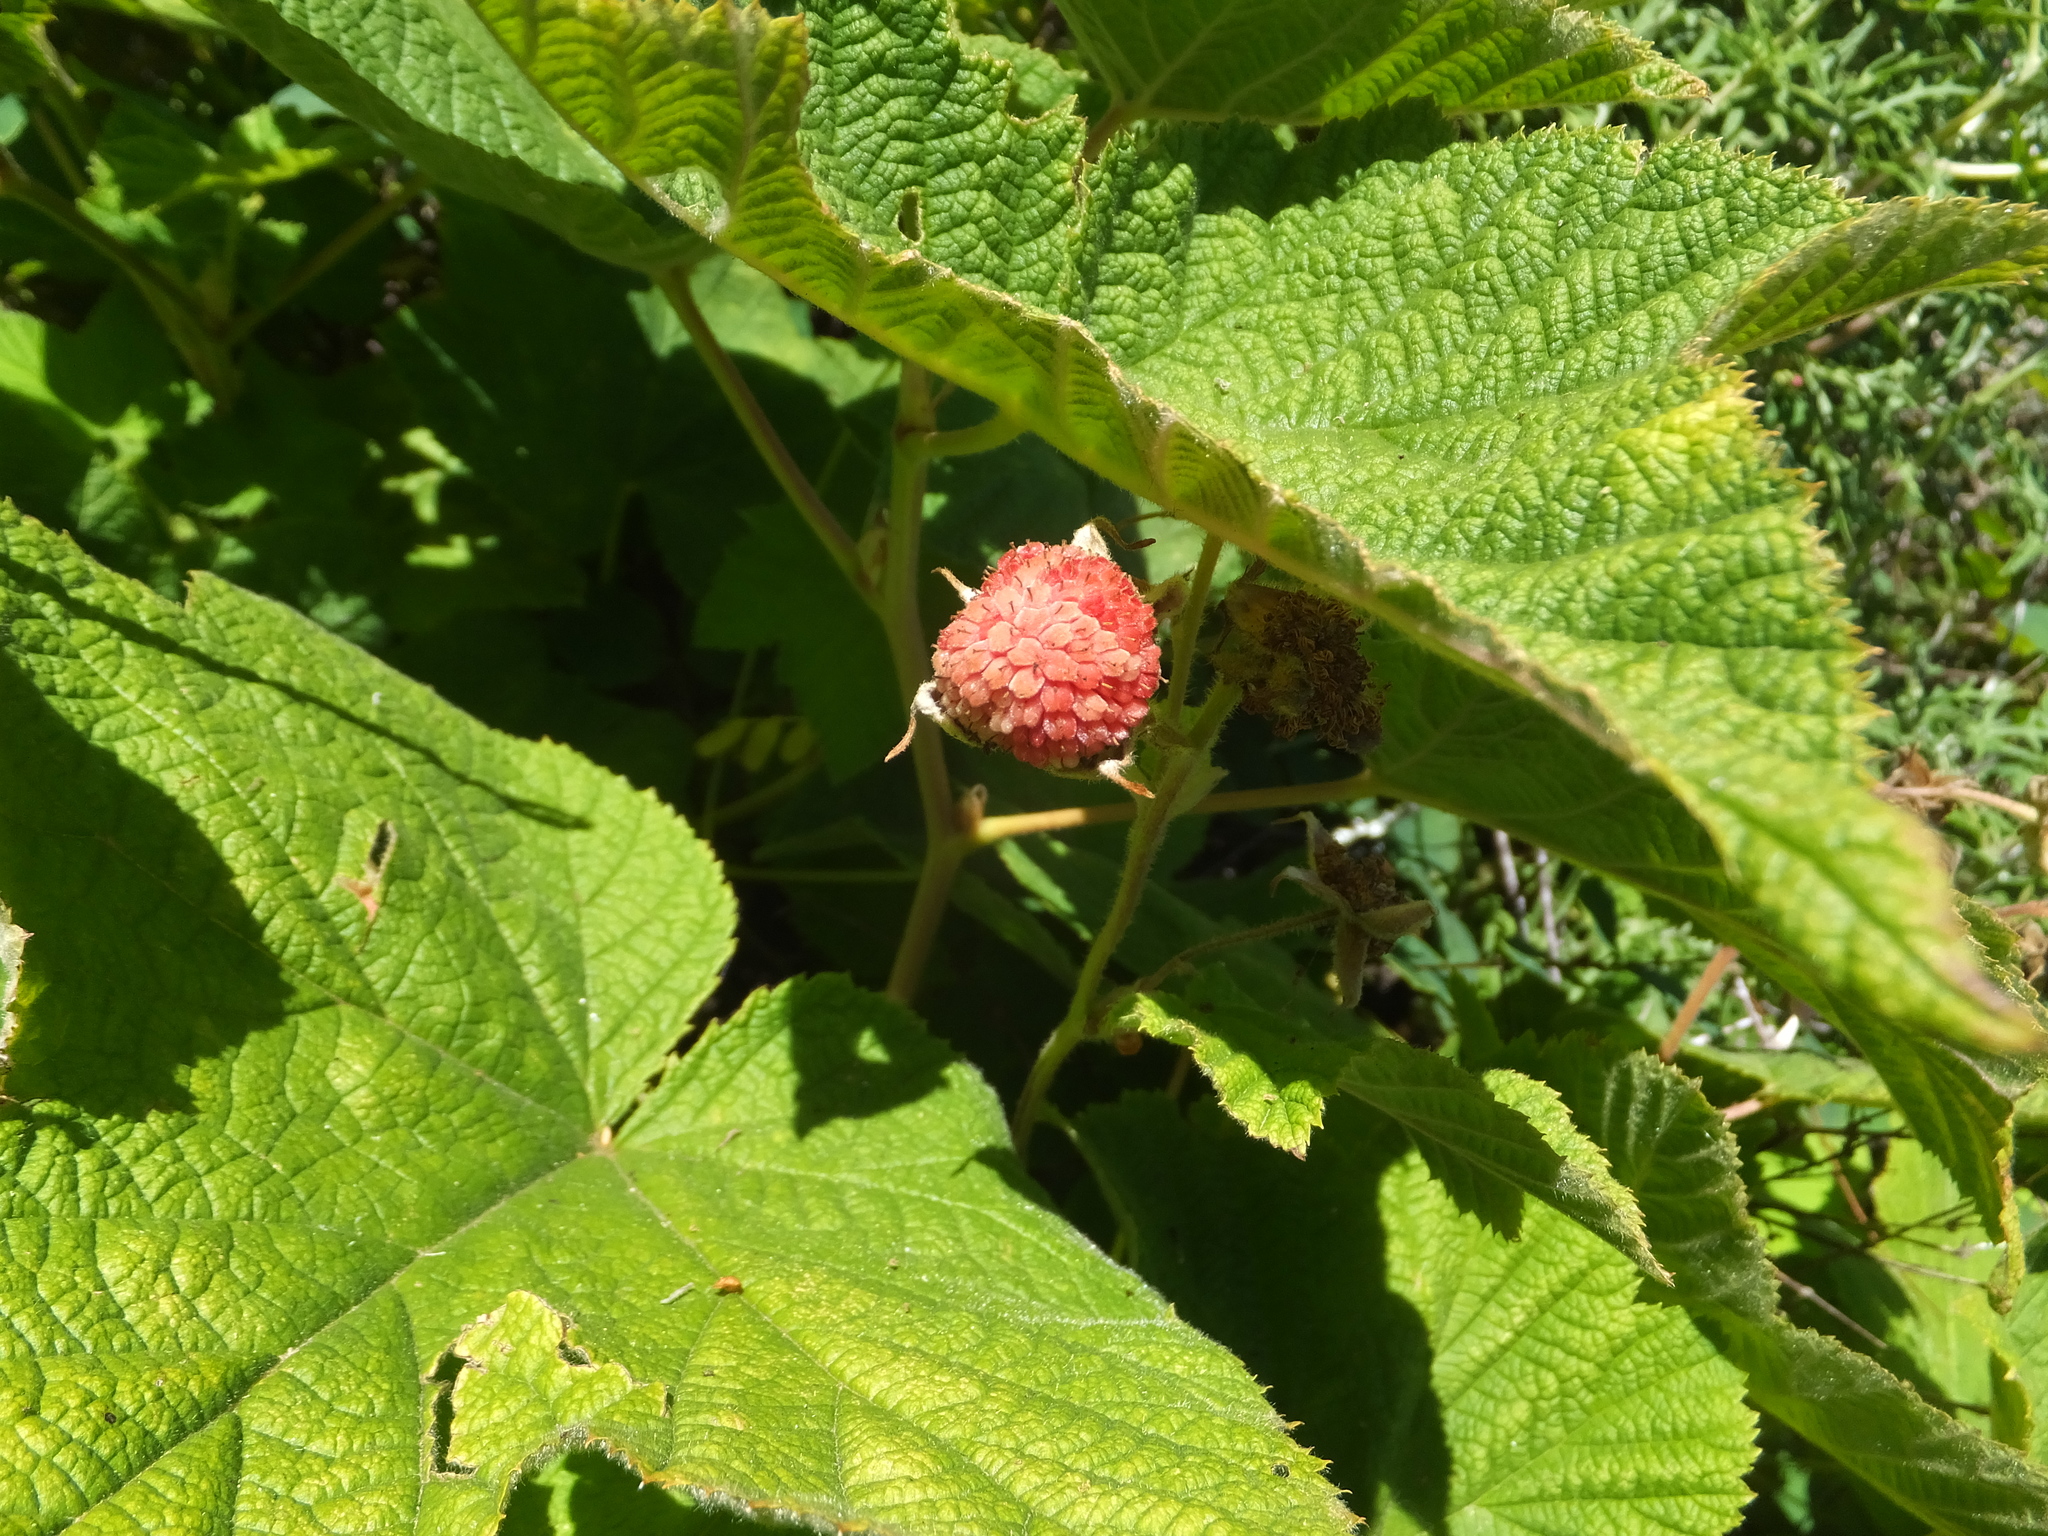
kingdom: Plantae
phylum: Tracheophyta
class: Magnoliopsida
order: Rosales
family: Rosaceae
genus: Rubus
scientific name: Rubus parviflorus
